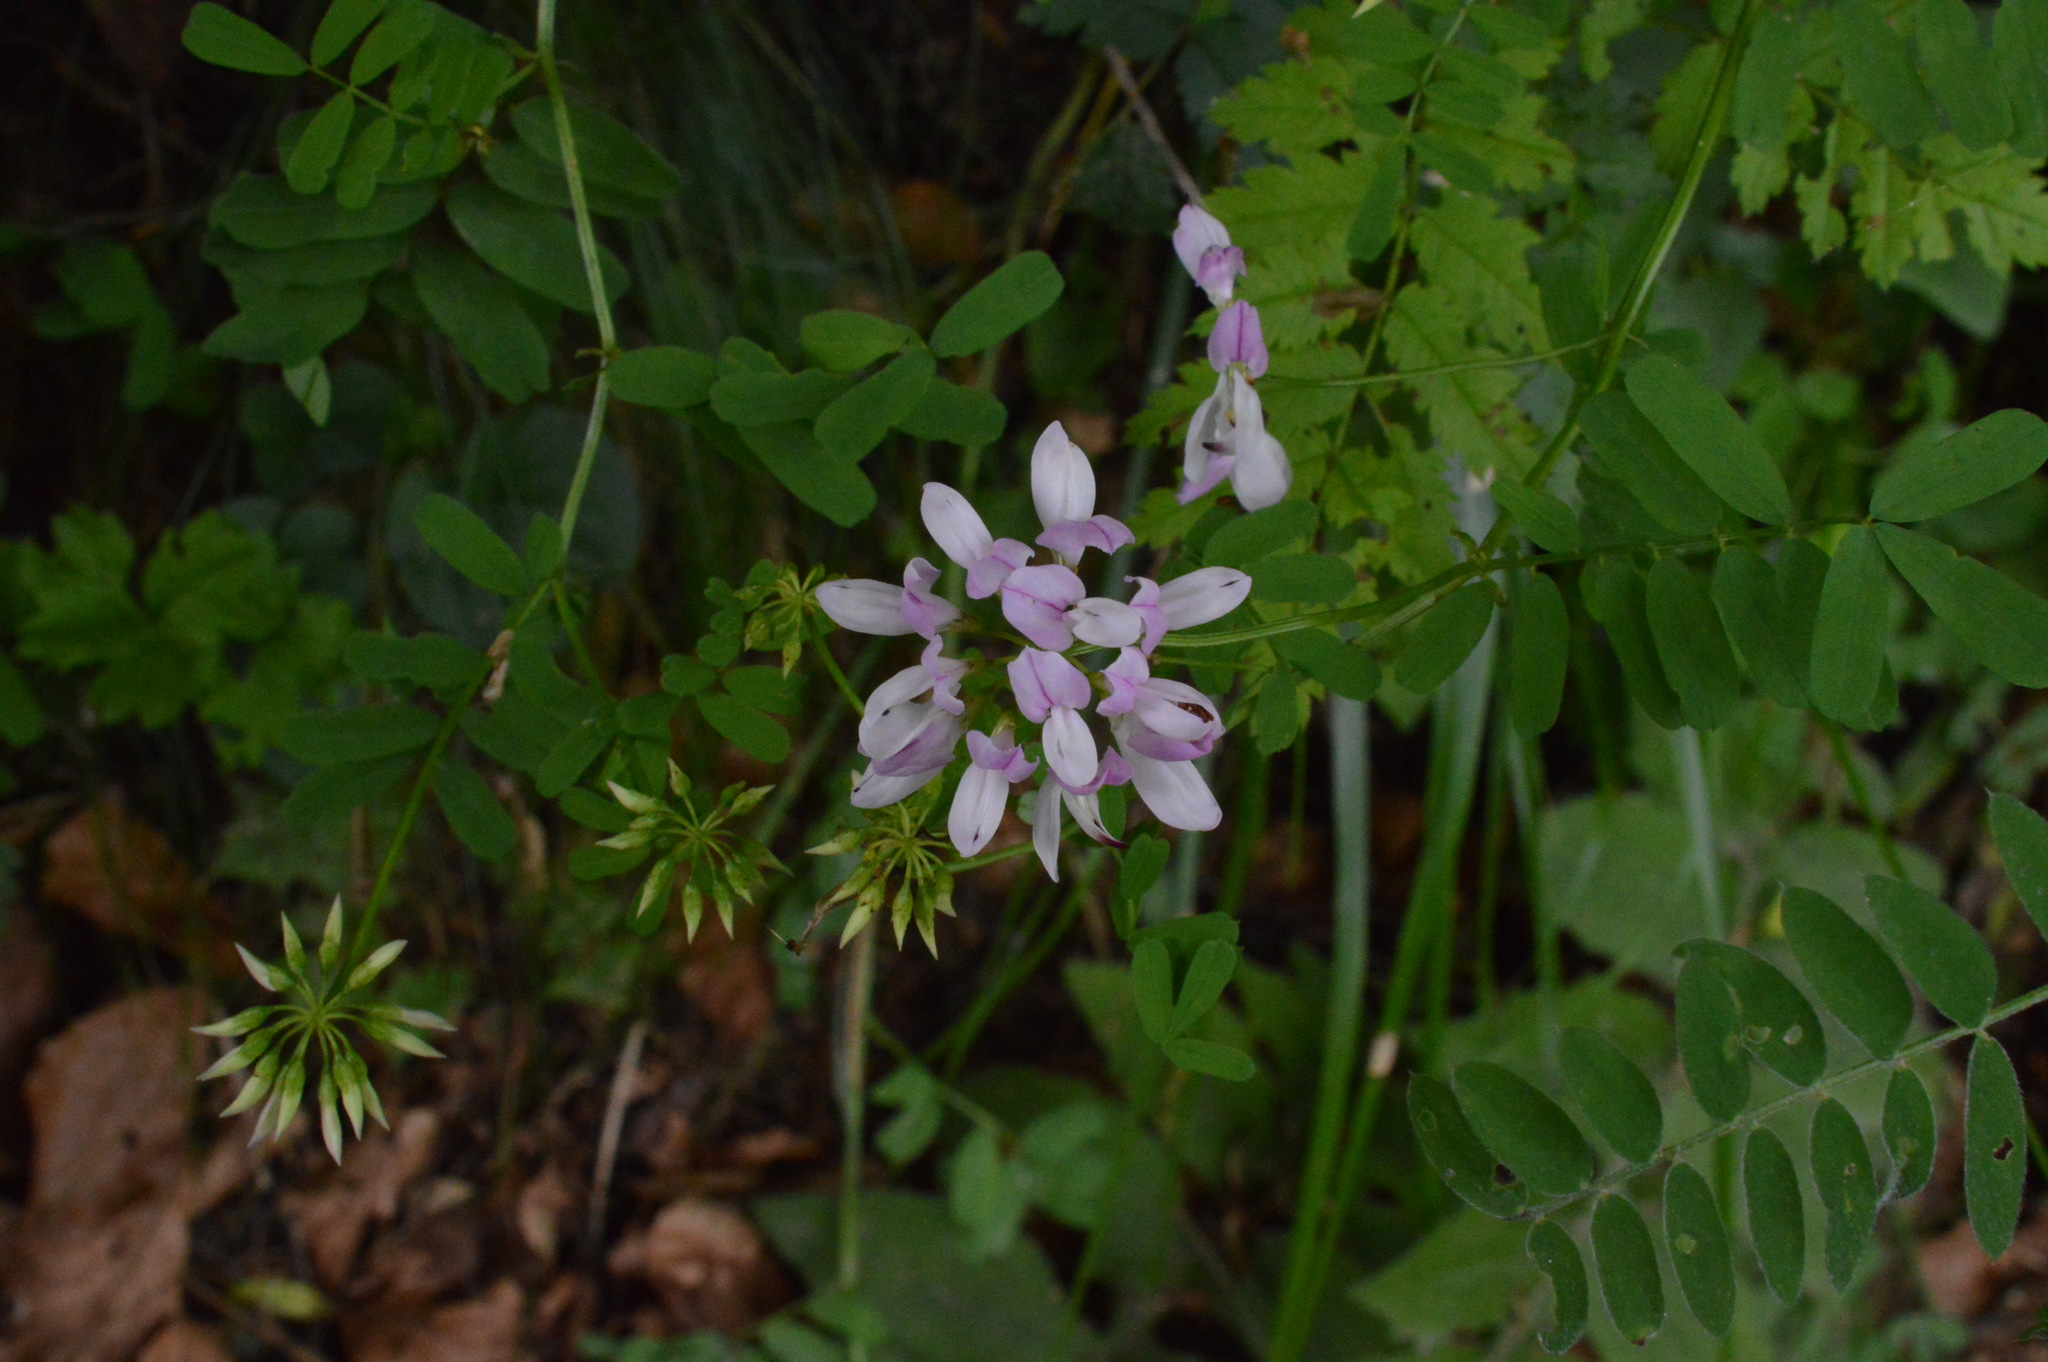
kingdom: Plantae
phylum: Tracheophyta
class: Magnoliopsida
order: Fabales
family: Fabaceae
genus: Coronilla
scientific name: Coronilla varia
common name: Crownvetch
